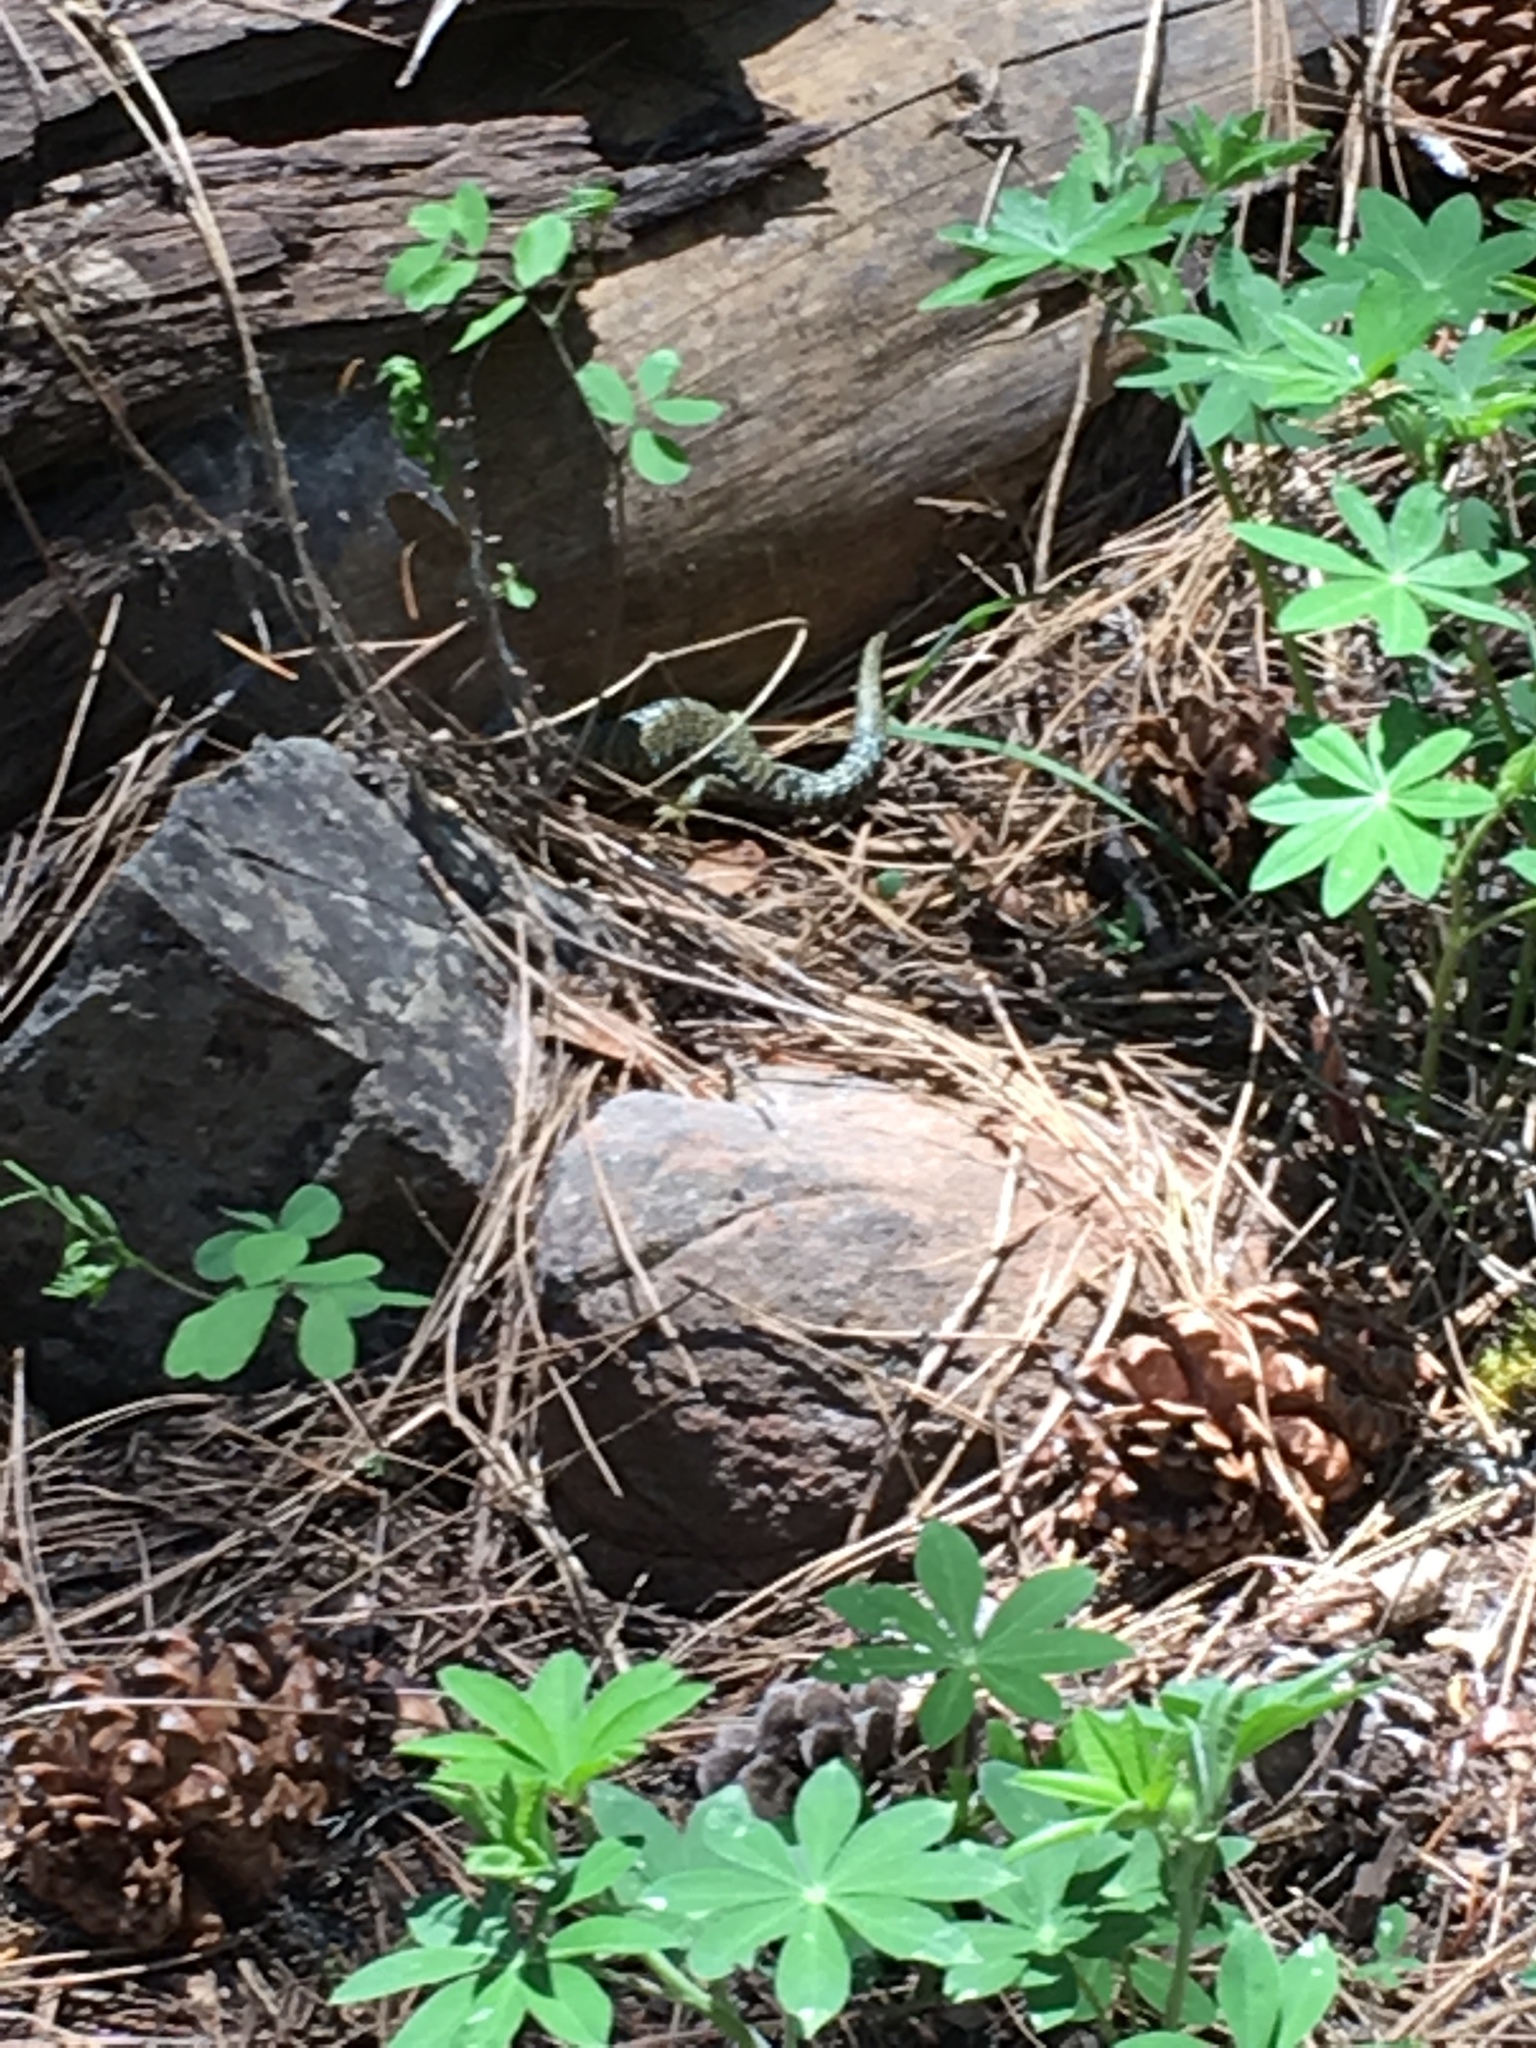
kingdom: Animalia
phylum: Chordata
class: Squamata
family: Anguidae
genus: Elgaria
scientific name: Elgaria coerulea
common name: Northern alligator lizard
